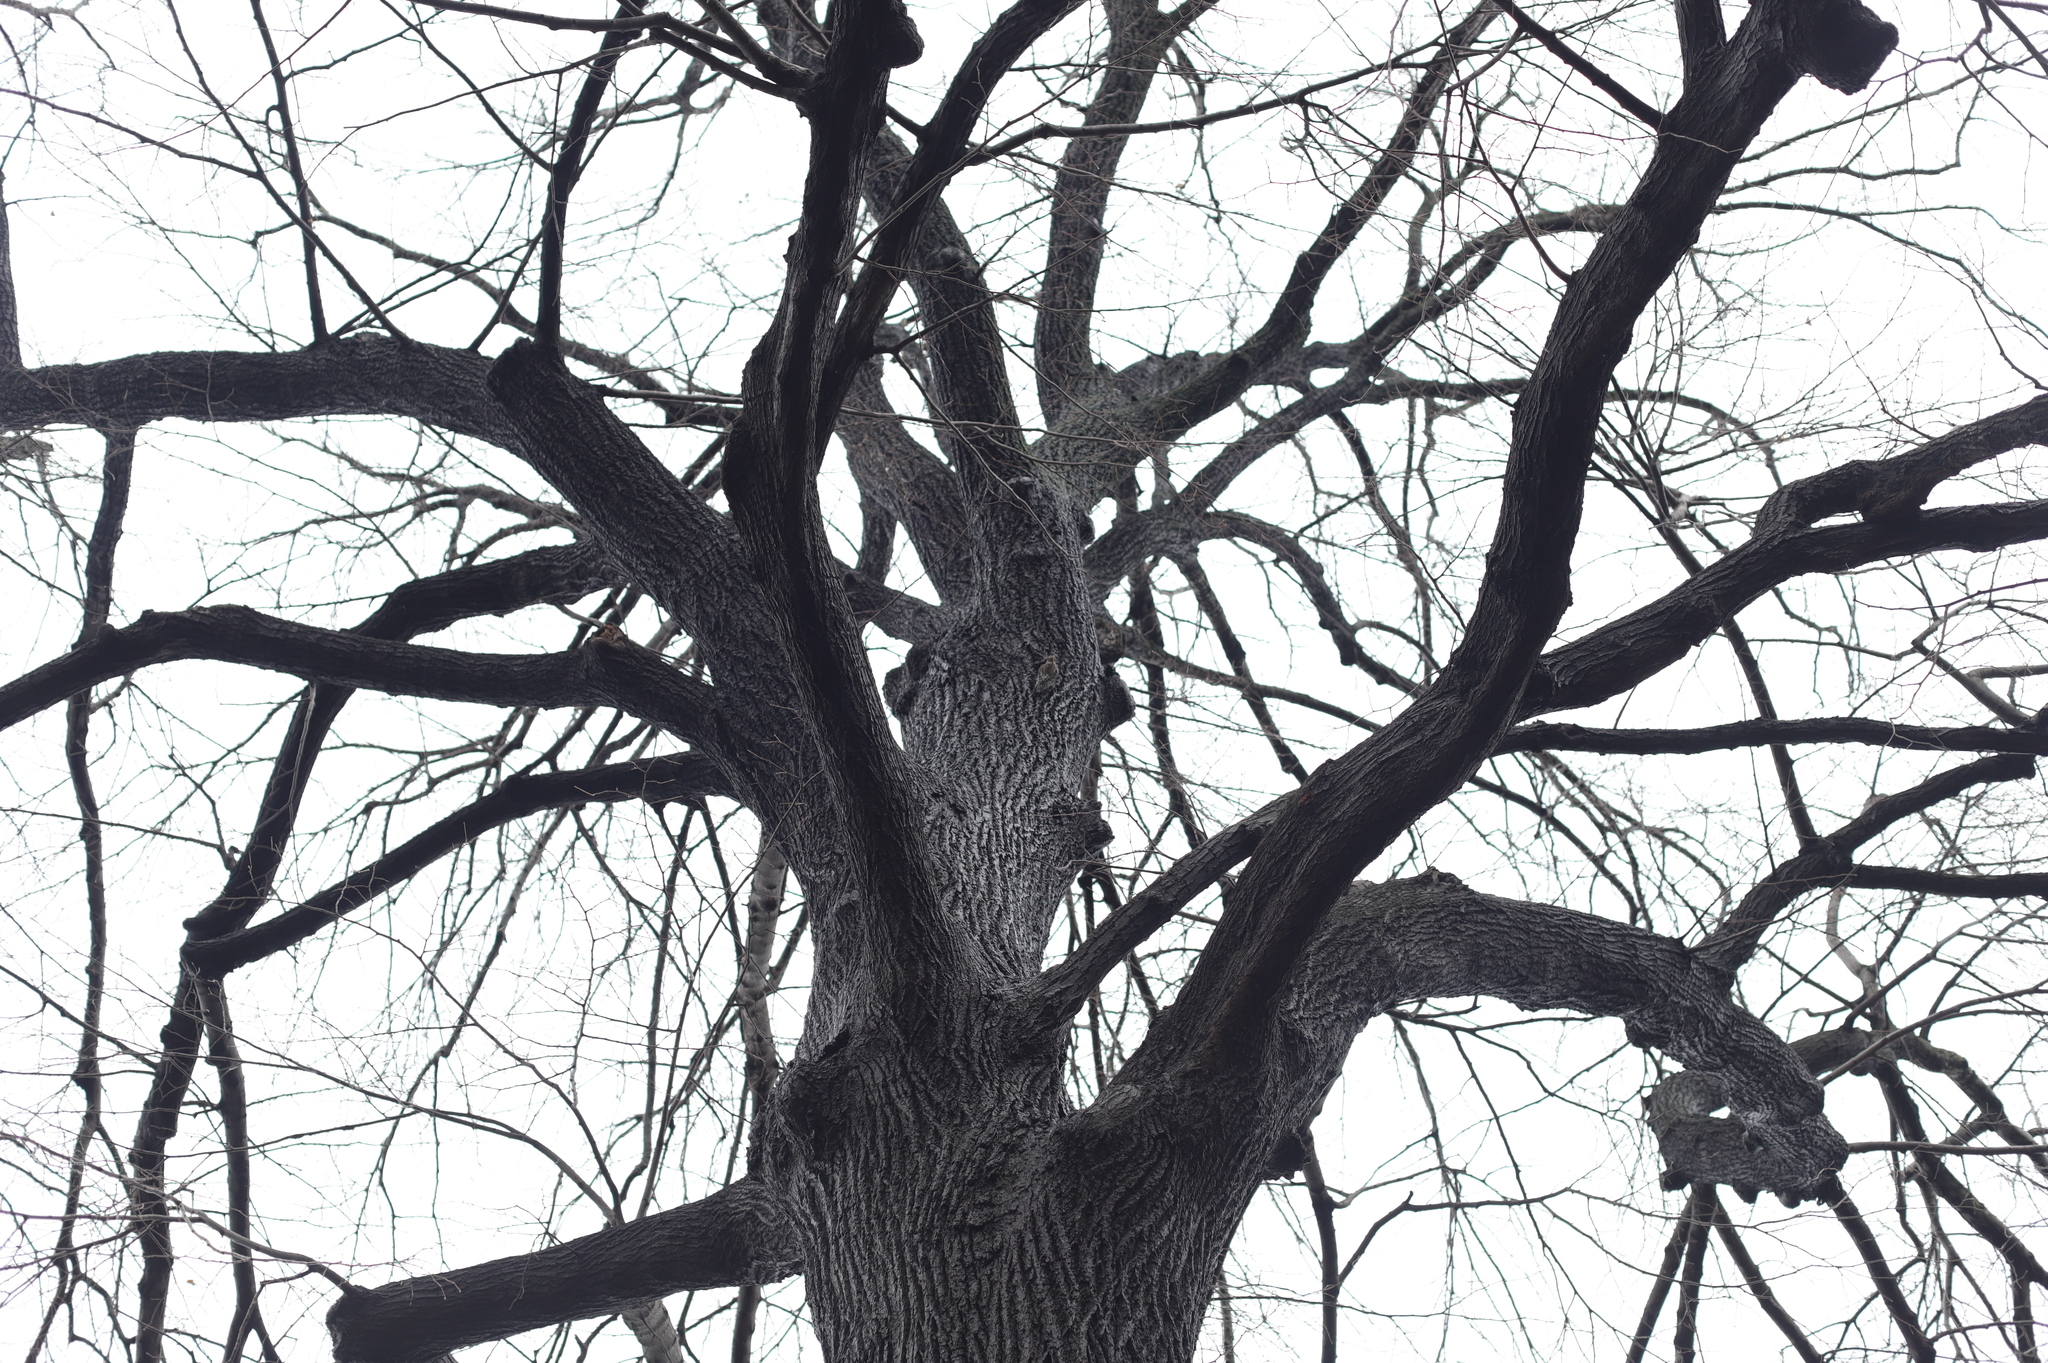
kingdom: Animalia
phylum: Chordata
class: Aves
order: Piciformes
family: Picidae
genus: Sphyrapicus
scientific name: Sphyrapicus varius
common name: Yellow-bellied sapsucker
